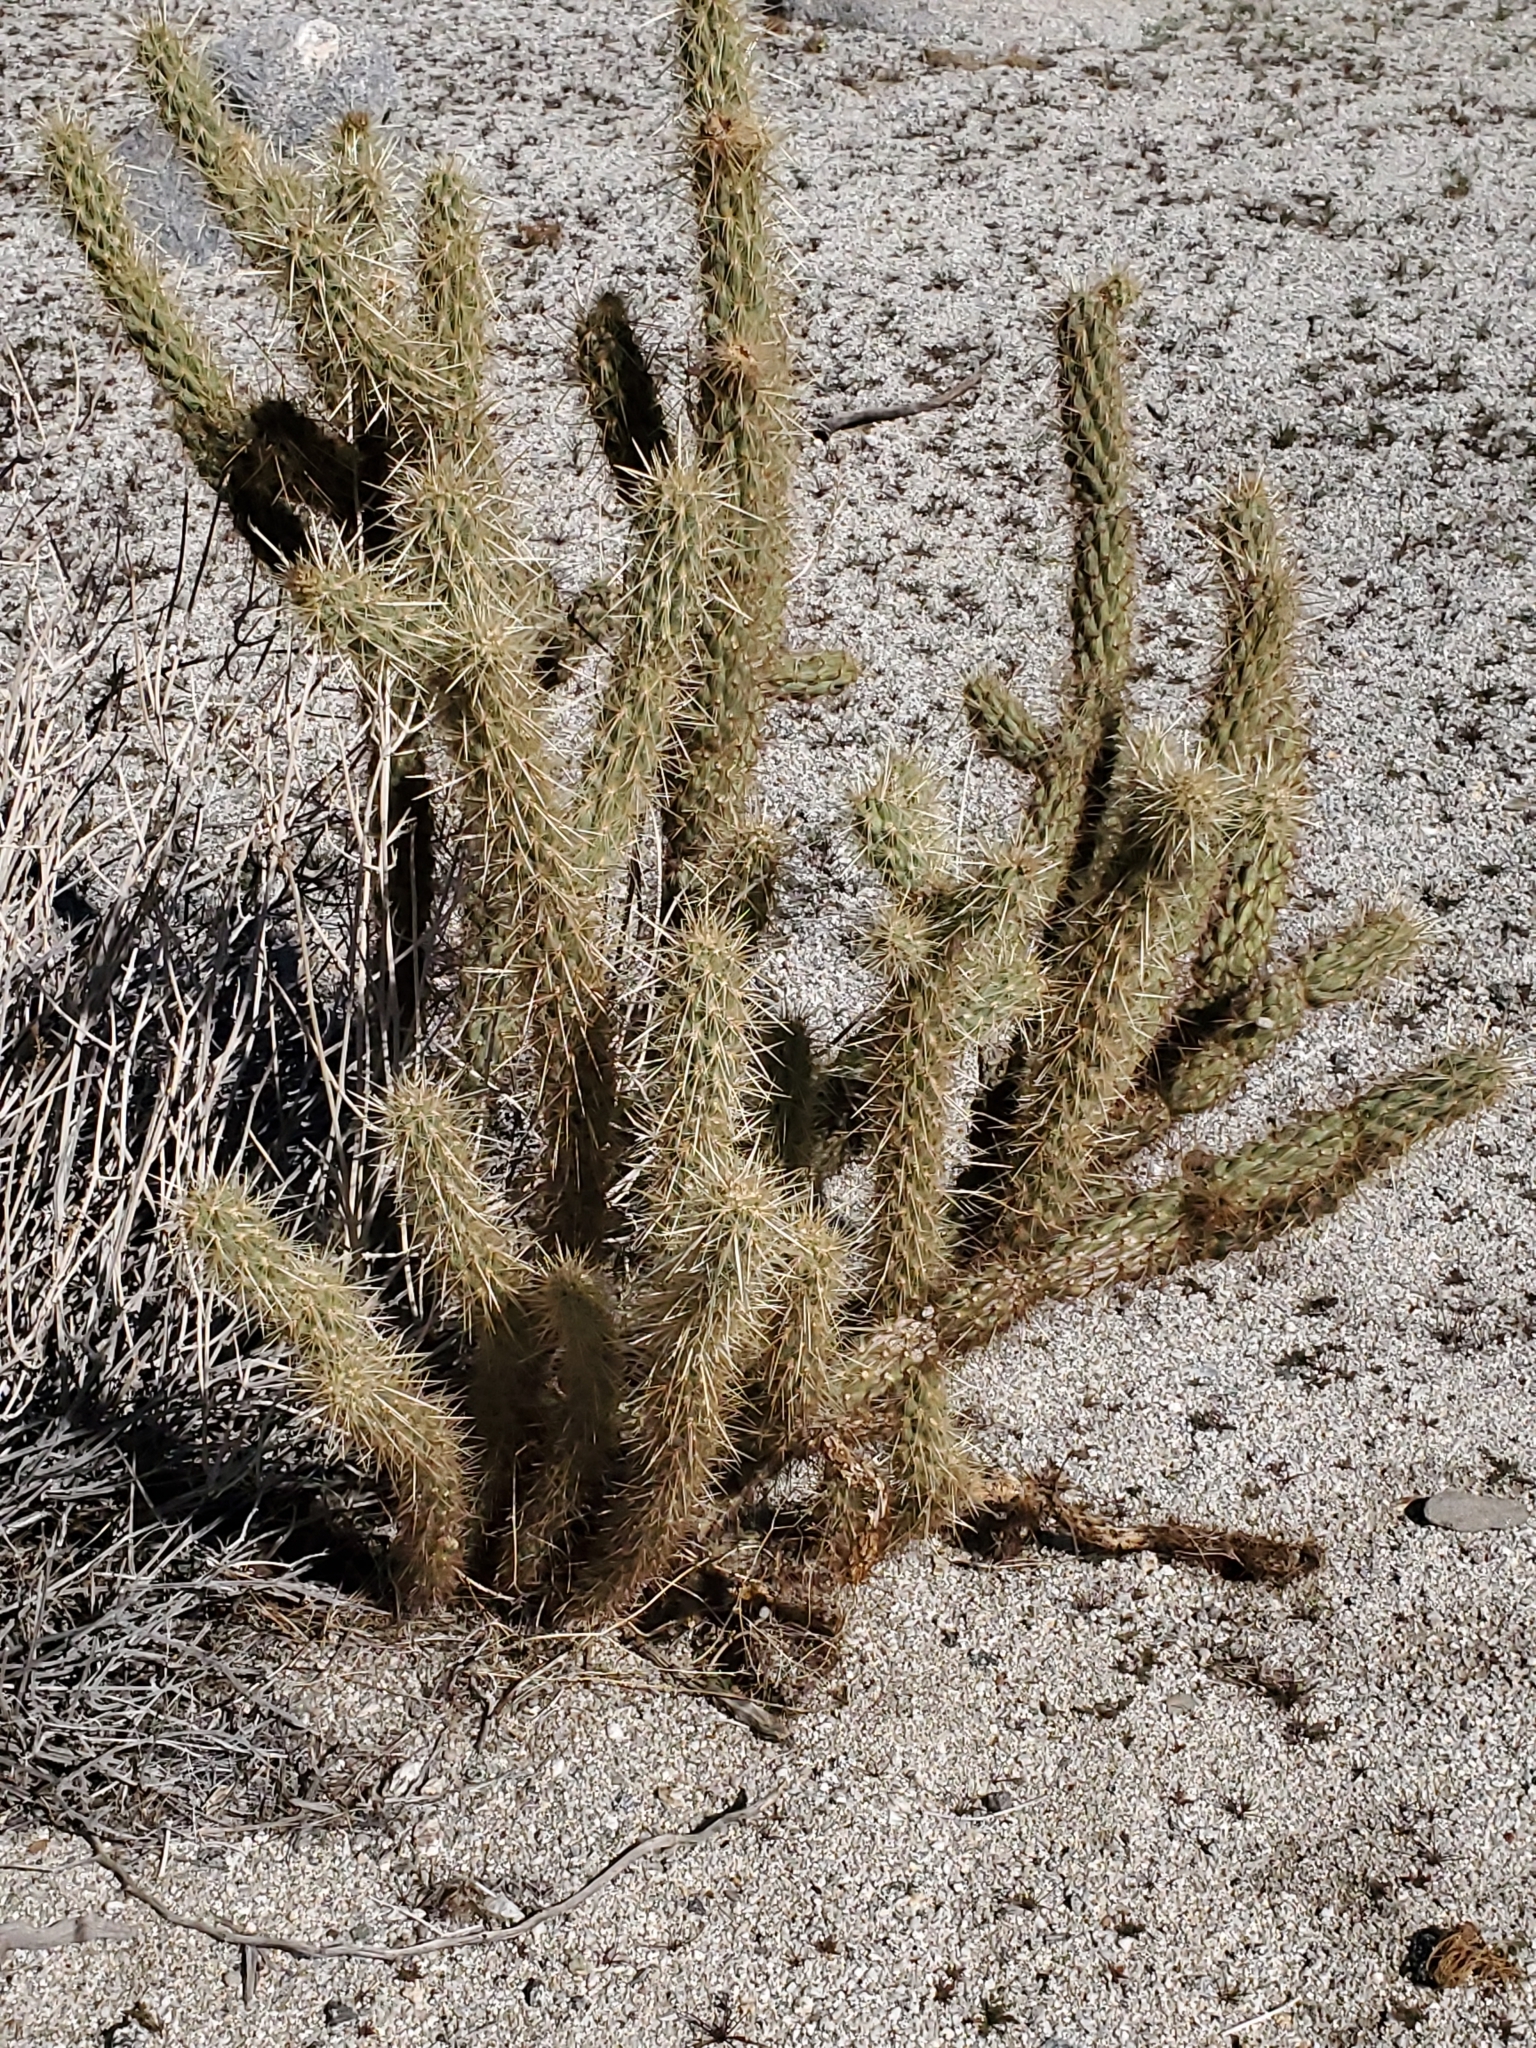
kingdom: Plantae
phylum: Tracheophyta
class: Magnoliopsida
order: Caryophyllales
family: Cactaceae
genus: Cylindropuntia
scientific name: Cylindropuntia ganderi
